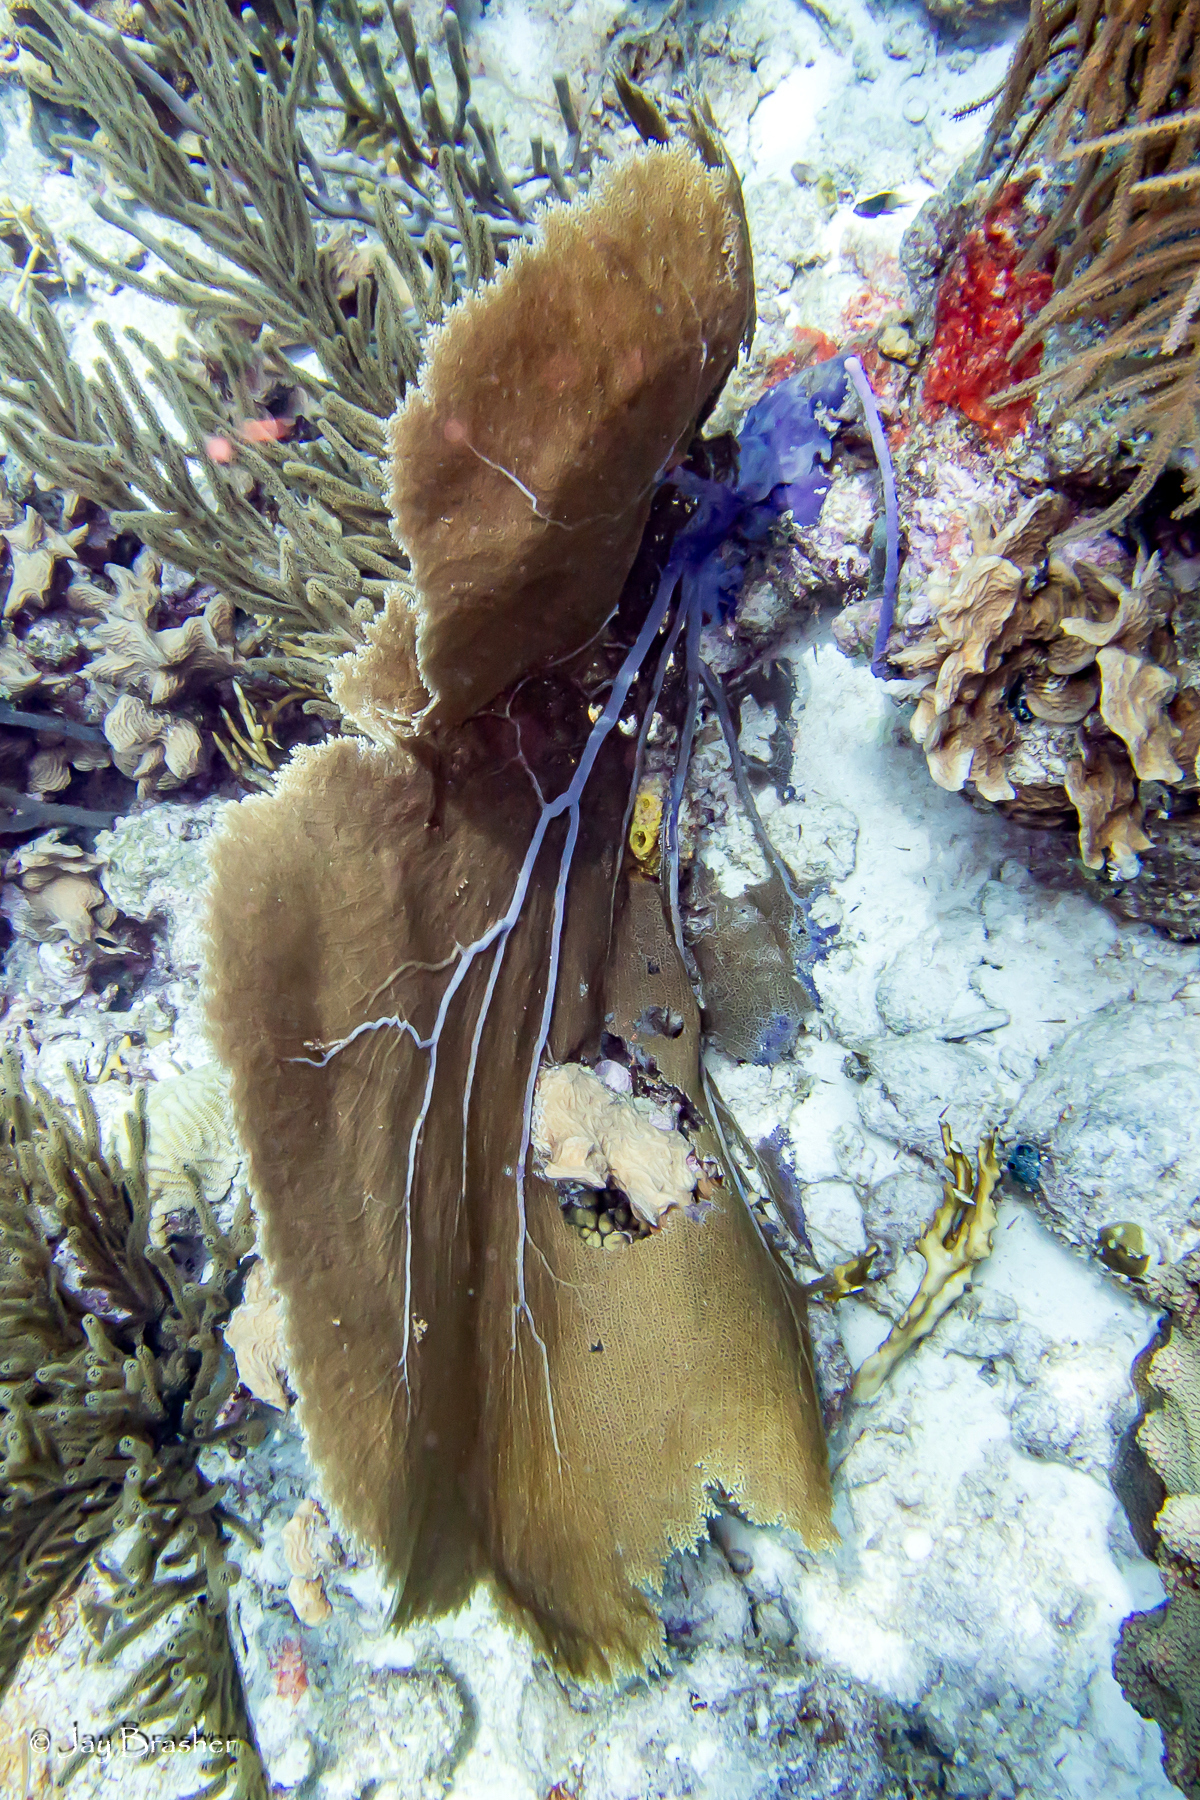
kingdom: Animalia
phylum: Cnidaria
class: Anthozoa
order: Malacalcyonacea
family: Gorgoniidae
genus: Gorgonia
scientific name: Gorgonia ventalina
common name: Common sea fan
